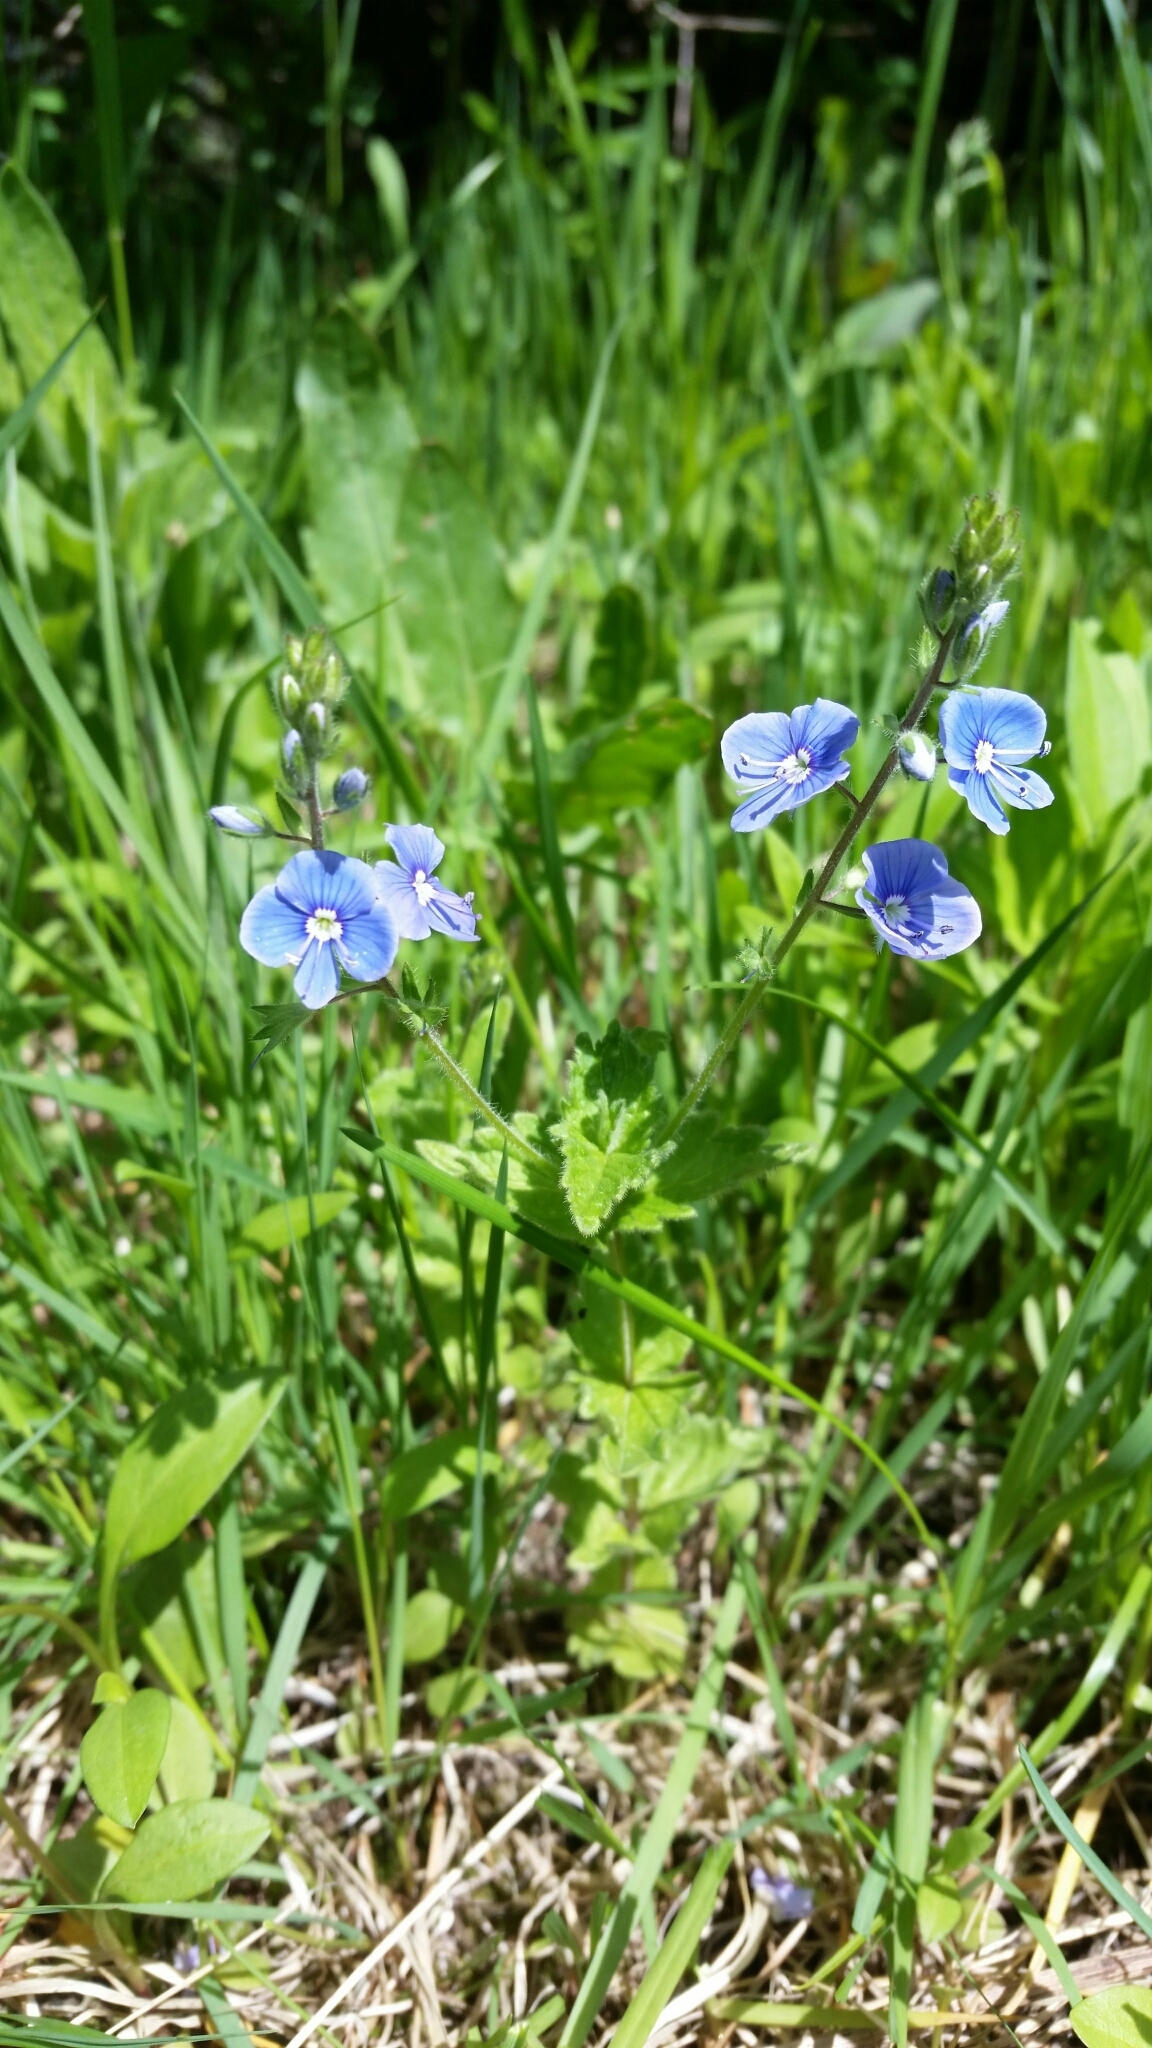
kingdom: Plantae
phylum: Tracheophyta
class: Magnoliopsida
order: Lamiales
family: Plantaginaceae
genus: Veronica
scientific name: Veronica chamaedrys
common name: Germander speedwell
